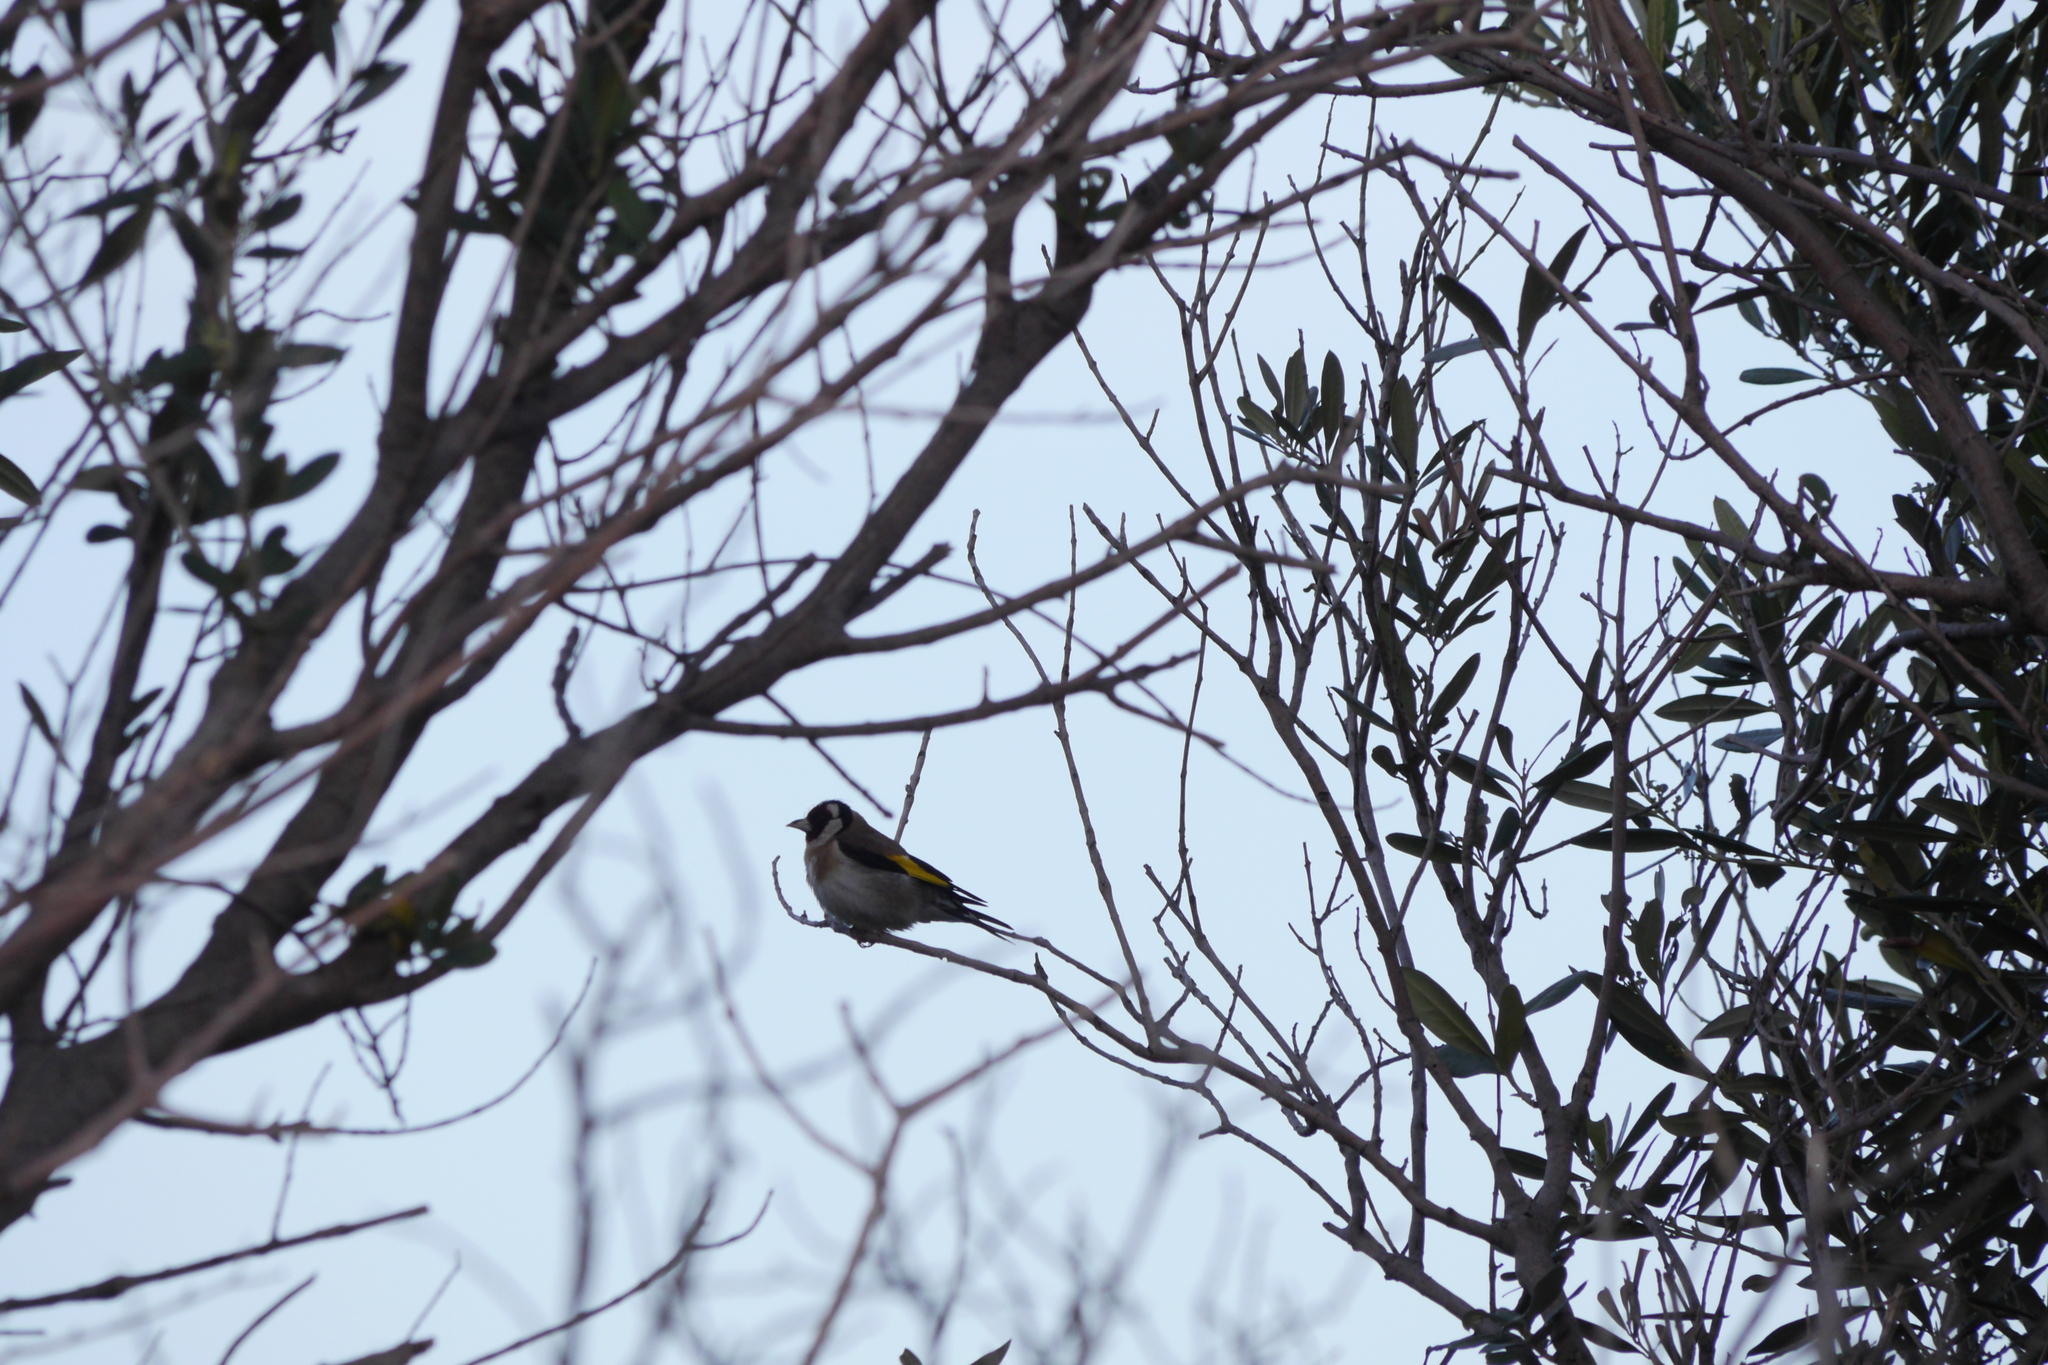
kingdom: Animalia
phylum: Chordata
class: Aves
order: Passeriformes
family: Fringillidae
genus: Carduelis
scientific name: Carduelis carduelis
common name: European goldfinch
